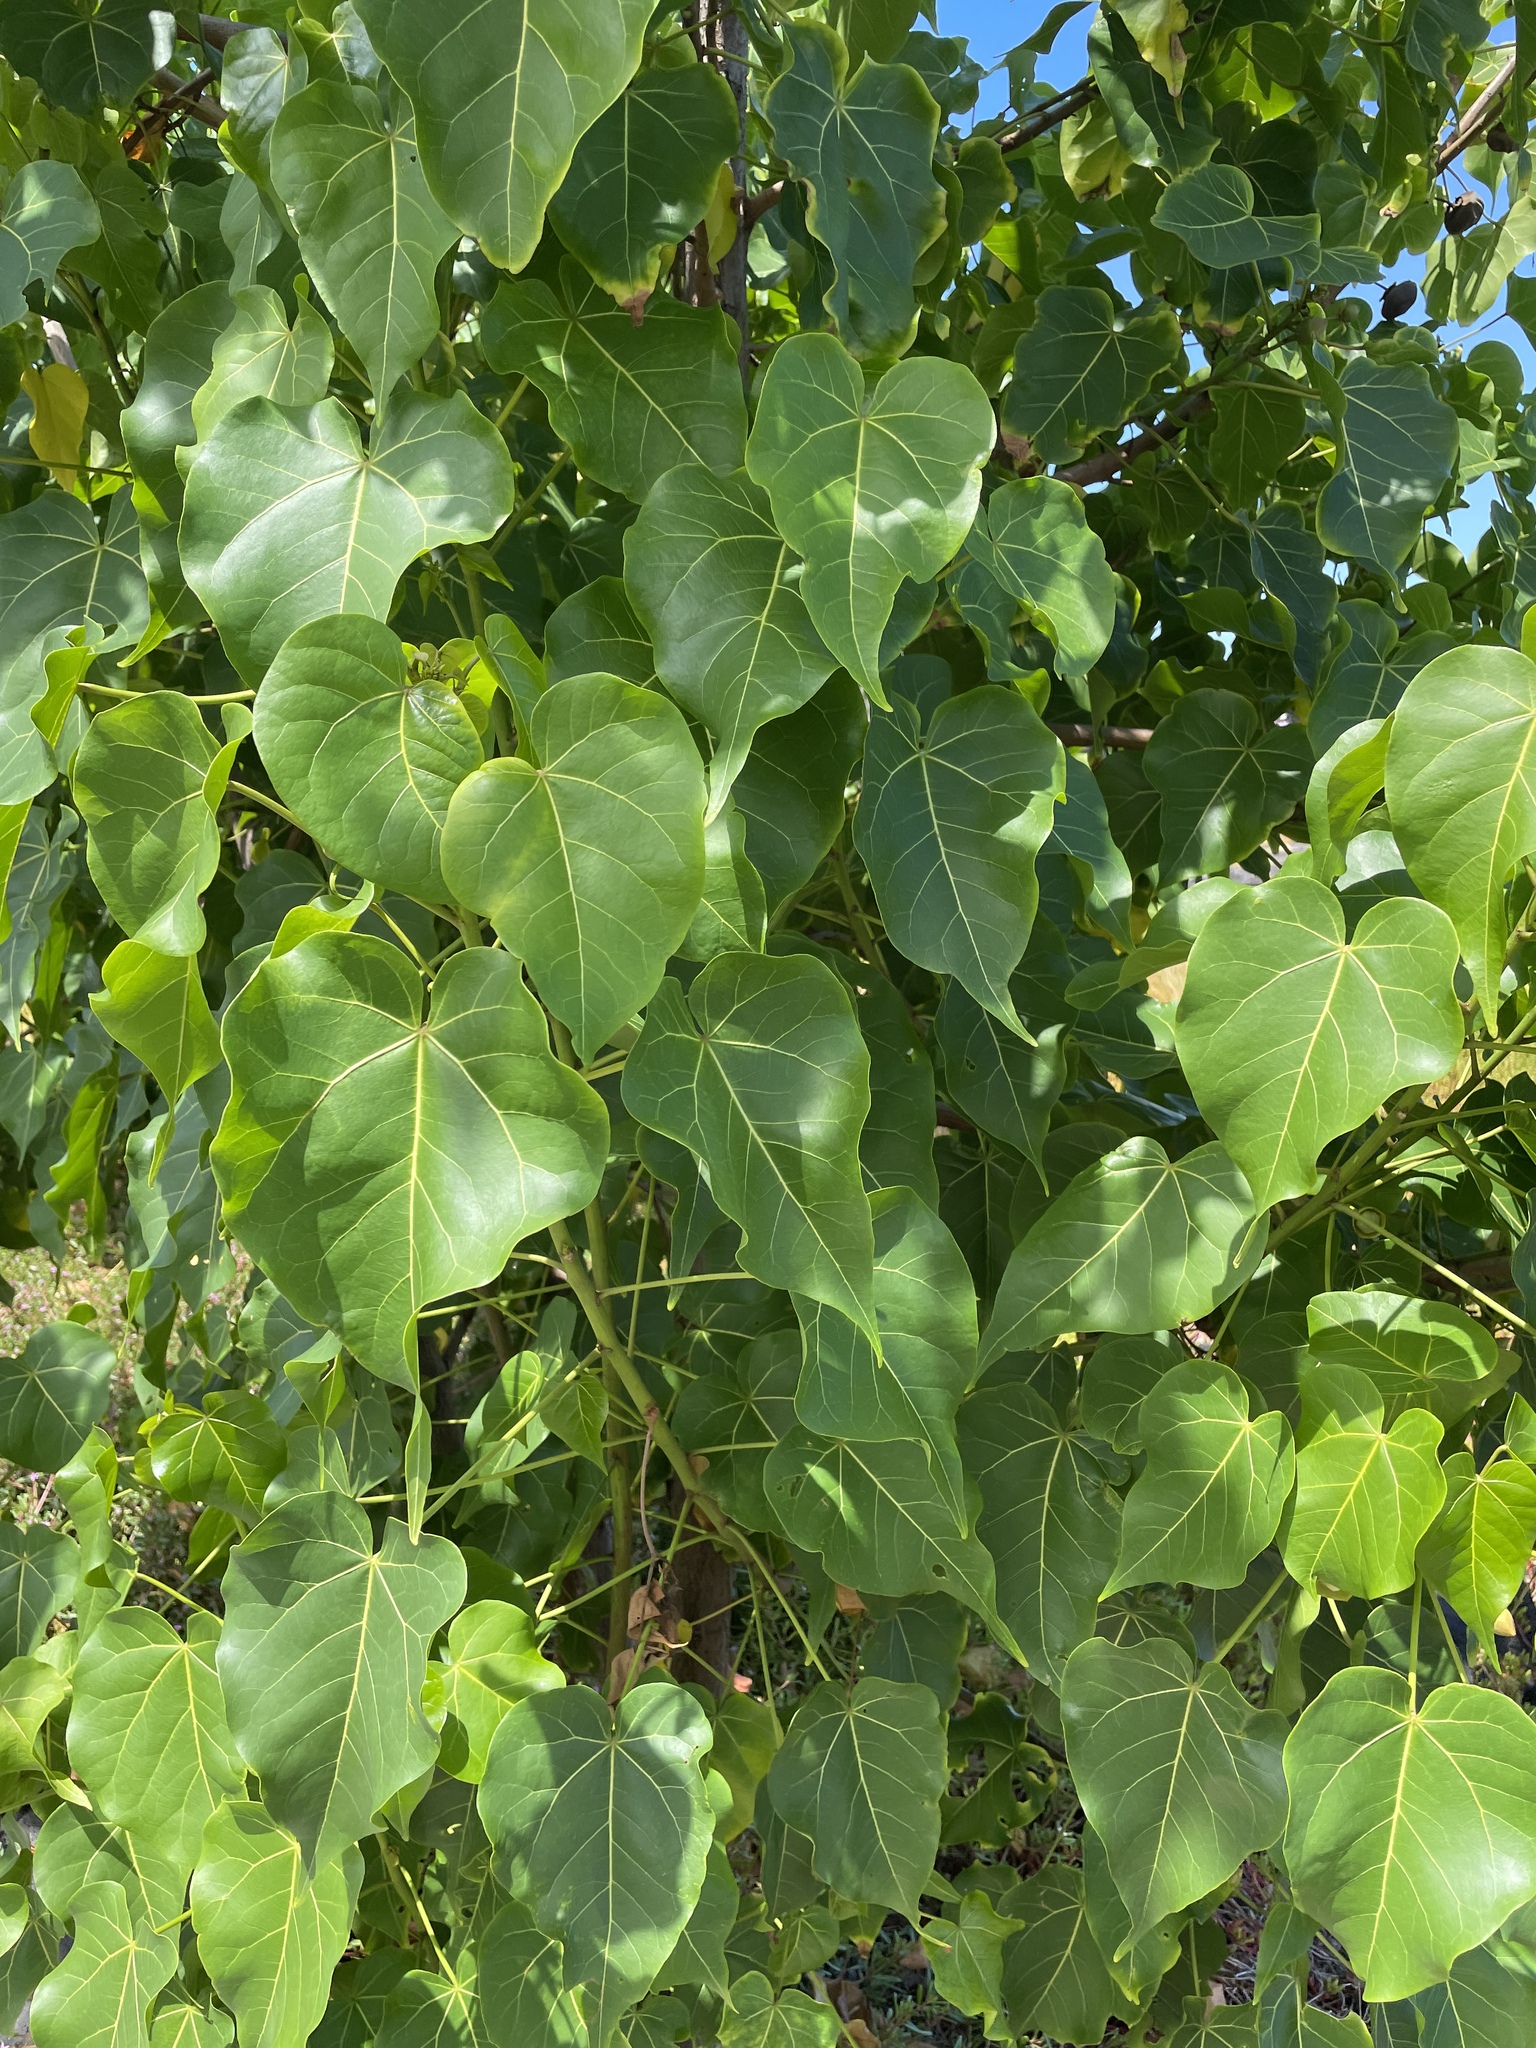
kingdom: Plantae
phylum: Tracheophyta
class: Magnoliopsida
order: Malvales
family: Malvaceae
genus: Thespesia
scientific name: Thespesia populnea
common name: Seaside mahoe
